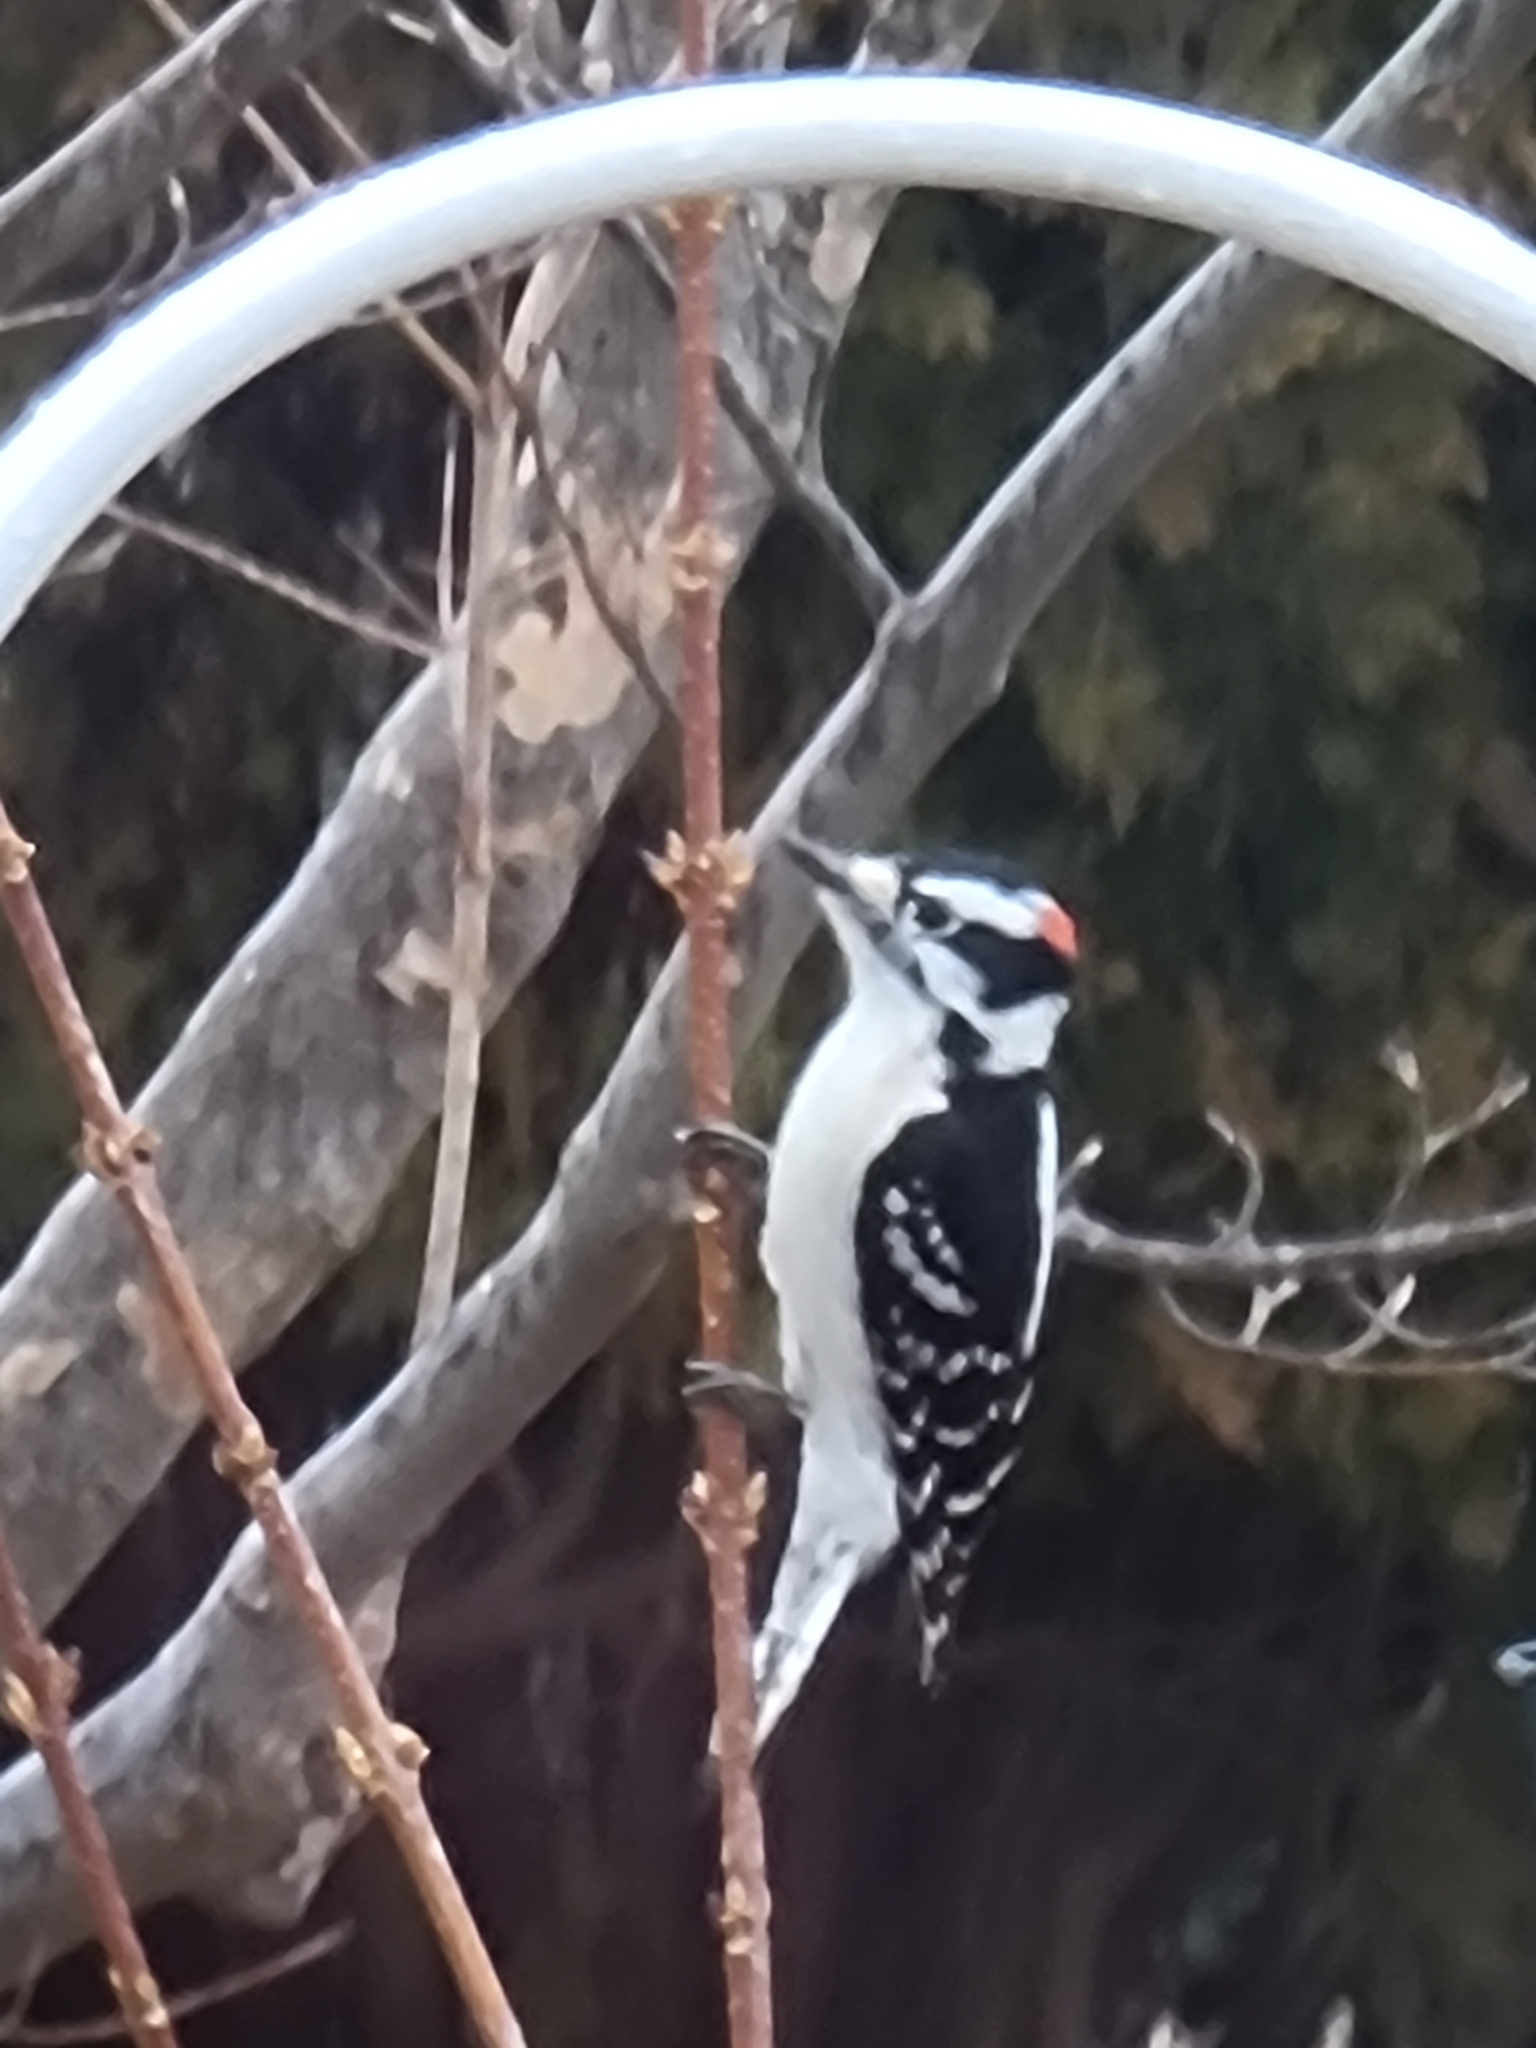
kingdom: Animalia
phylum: Chordata
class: Aves
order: Piciformes
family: Picidae
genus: Dryobates
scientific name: Dryobates pubescens
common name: Downy woodpecker
